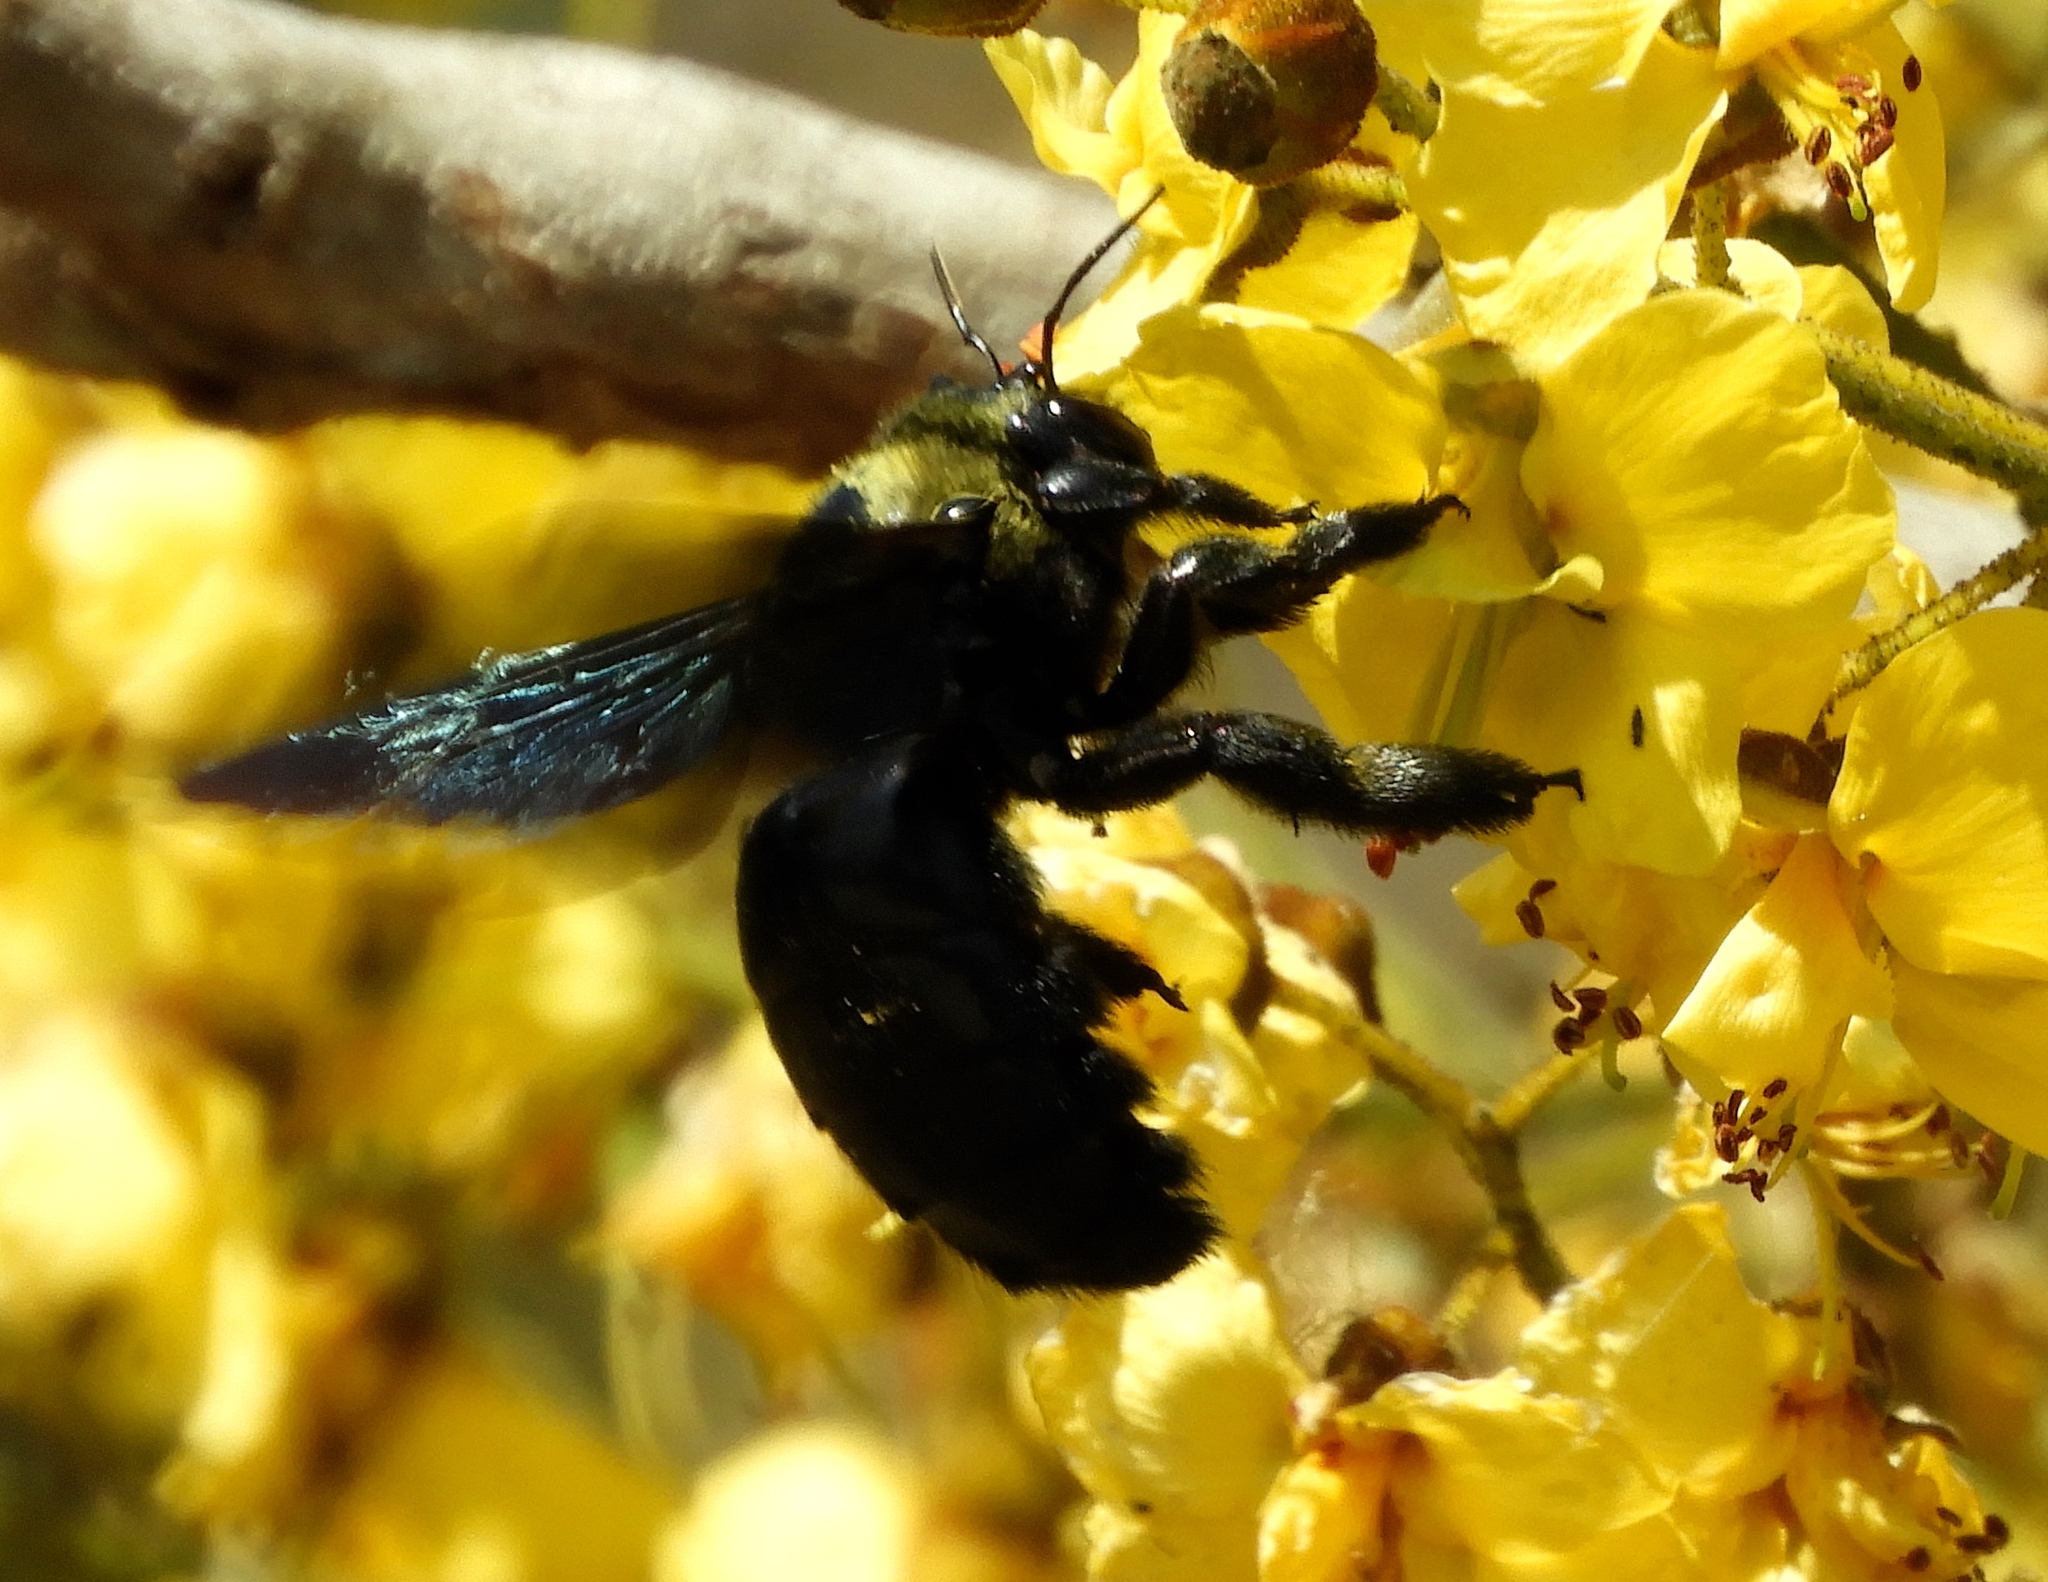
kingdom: Animalia
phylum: Arthropoda
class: Insecta
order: Hymenoptera
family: Apidae
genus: Xylocopa
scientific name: Xylocopa fimbriata
